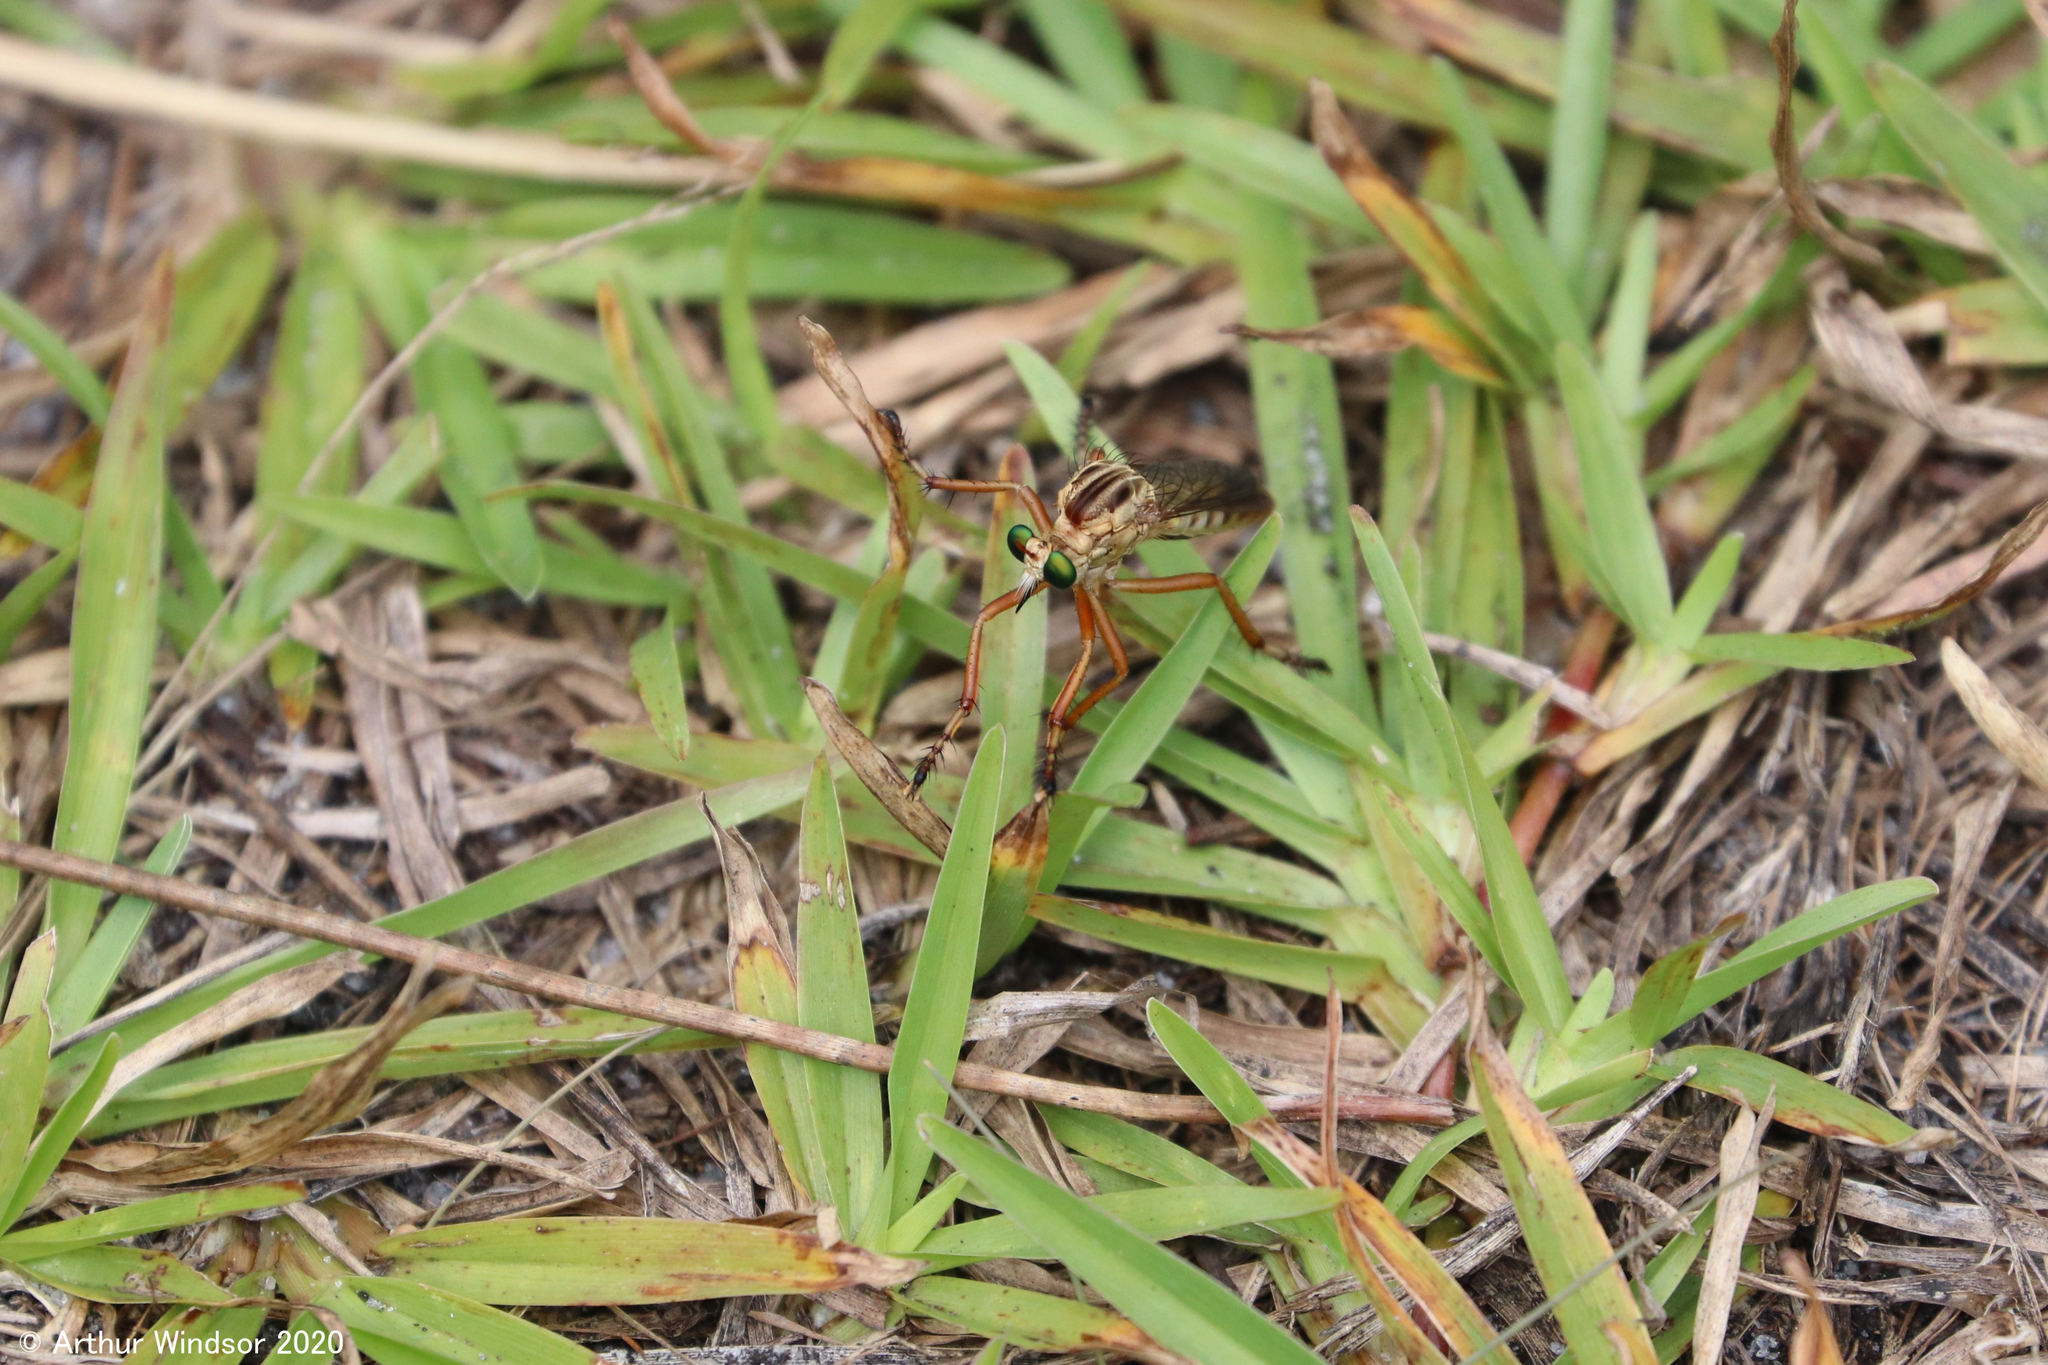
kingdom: Animalia
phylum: Arthropoda
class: Insecta
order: Diptera
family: Asilidae
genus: Diogmites
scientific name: Diogmites salutans
